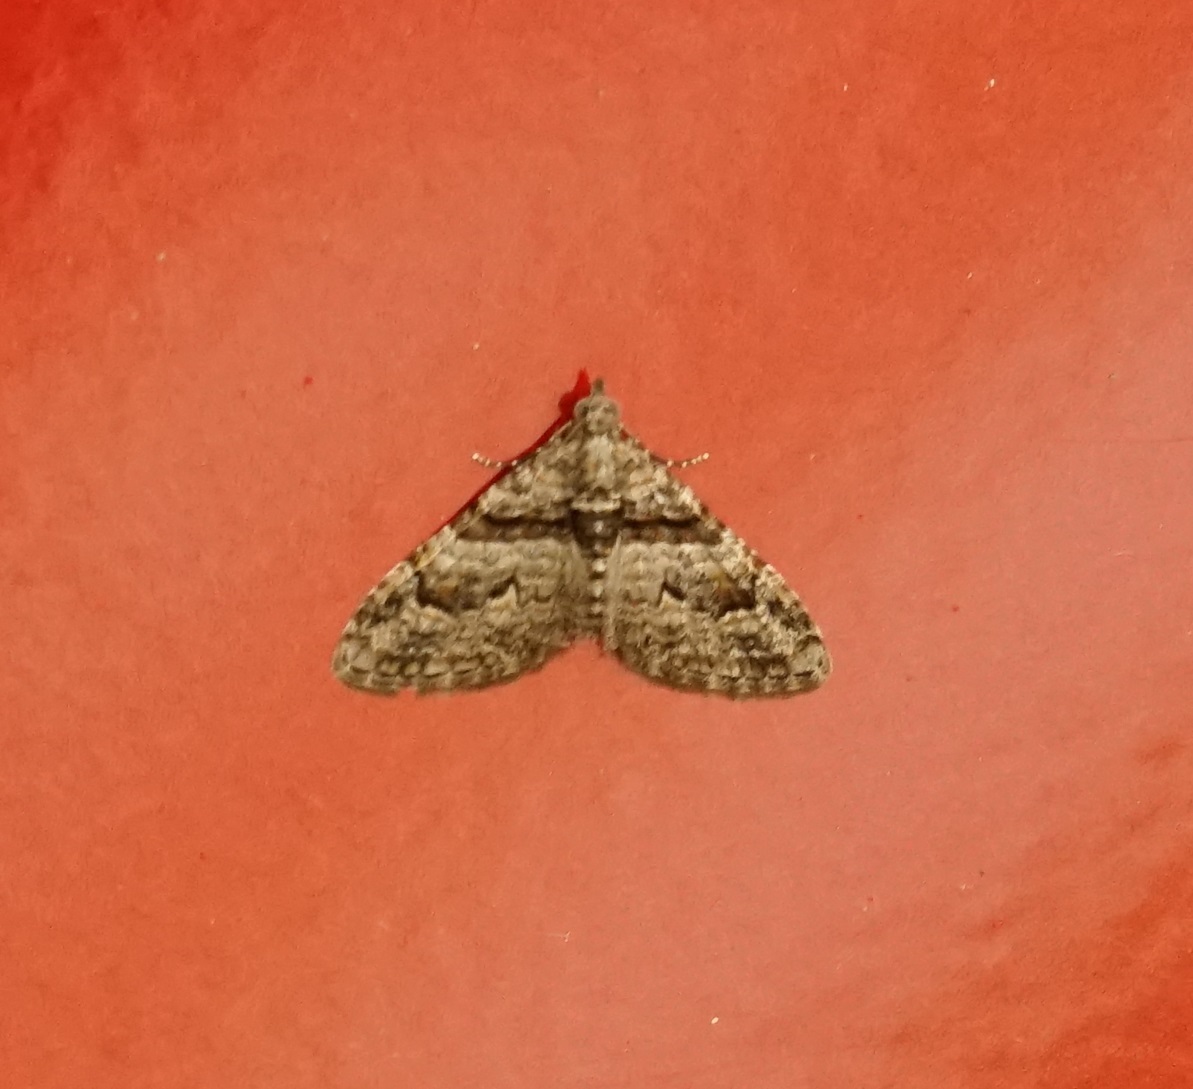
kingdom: Animalia
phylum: Arthropoda
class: Insecta
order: Lepidoptera
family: Geometridae
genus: Phrissogonus
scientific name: Phrissogonus laticostata
